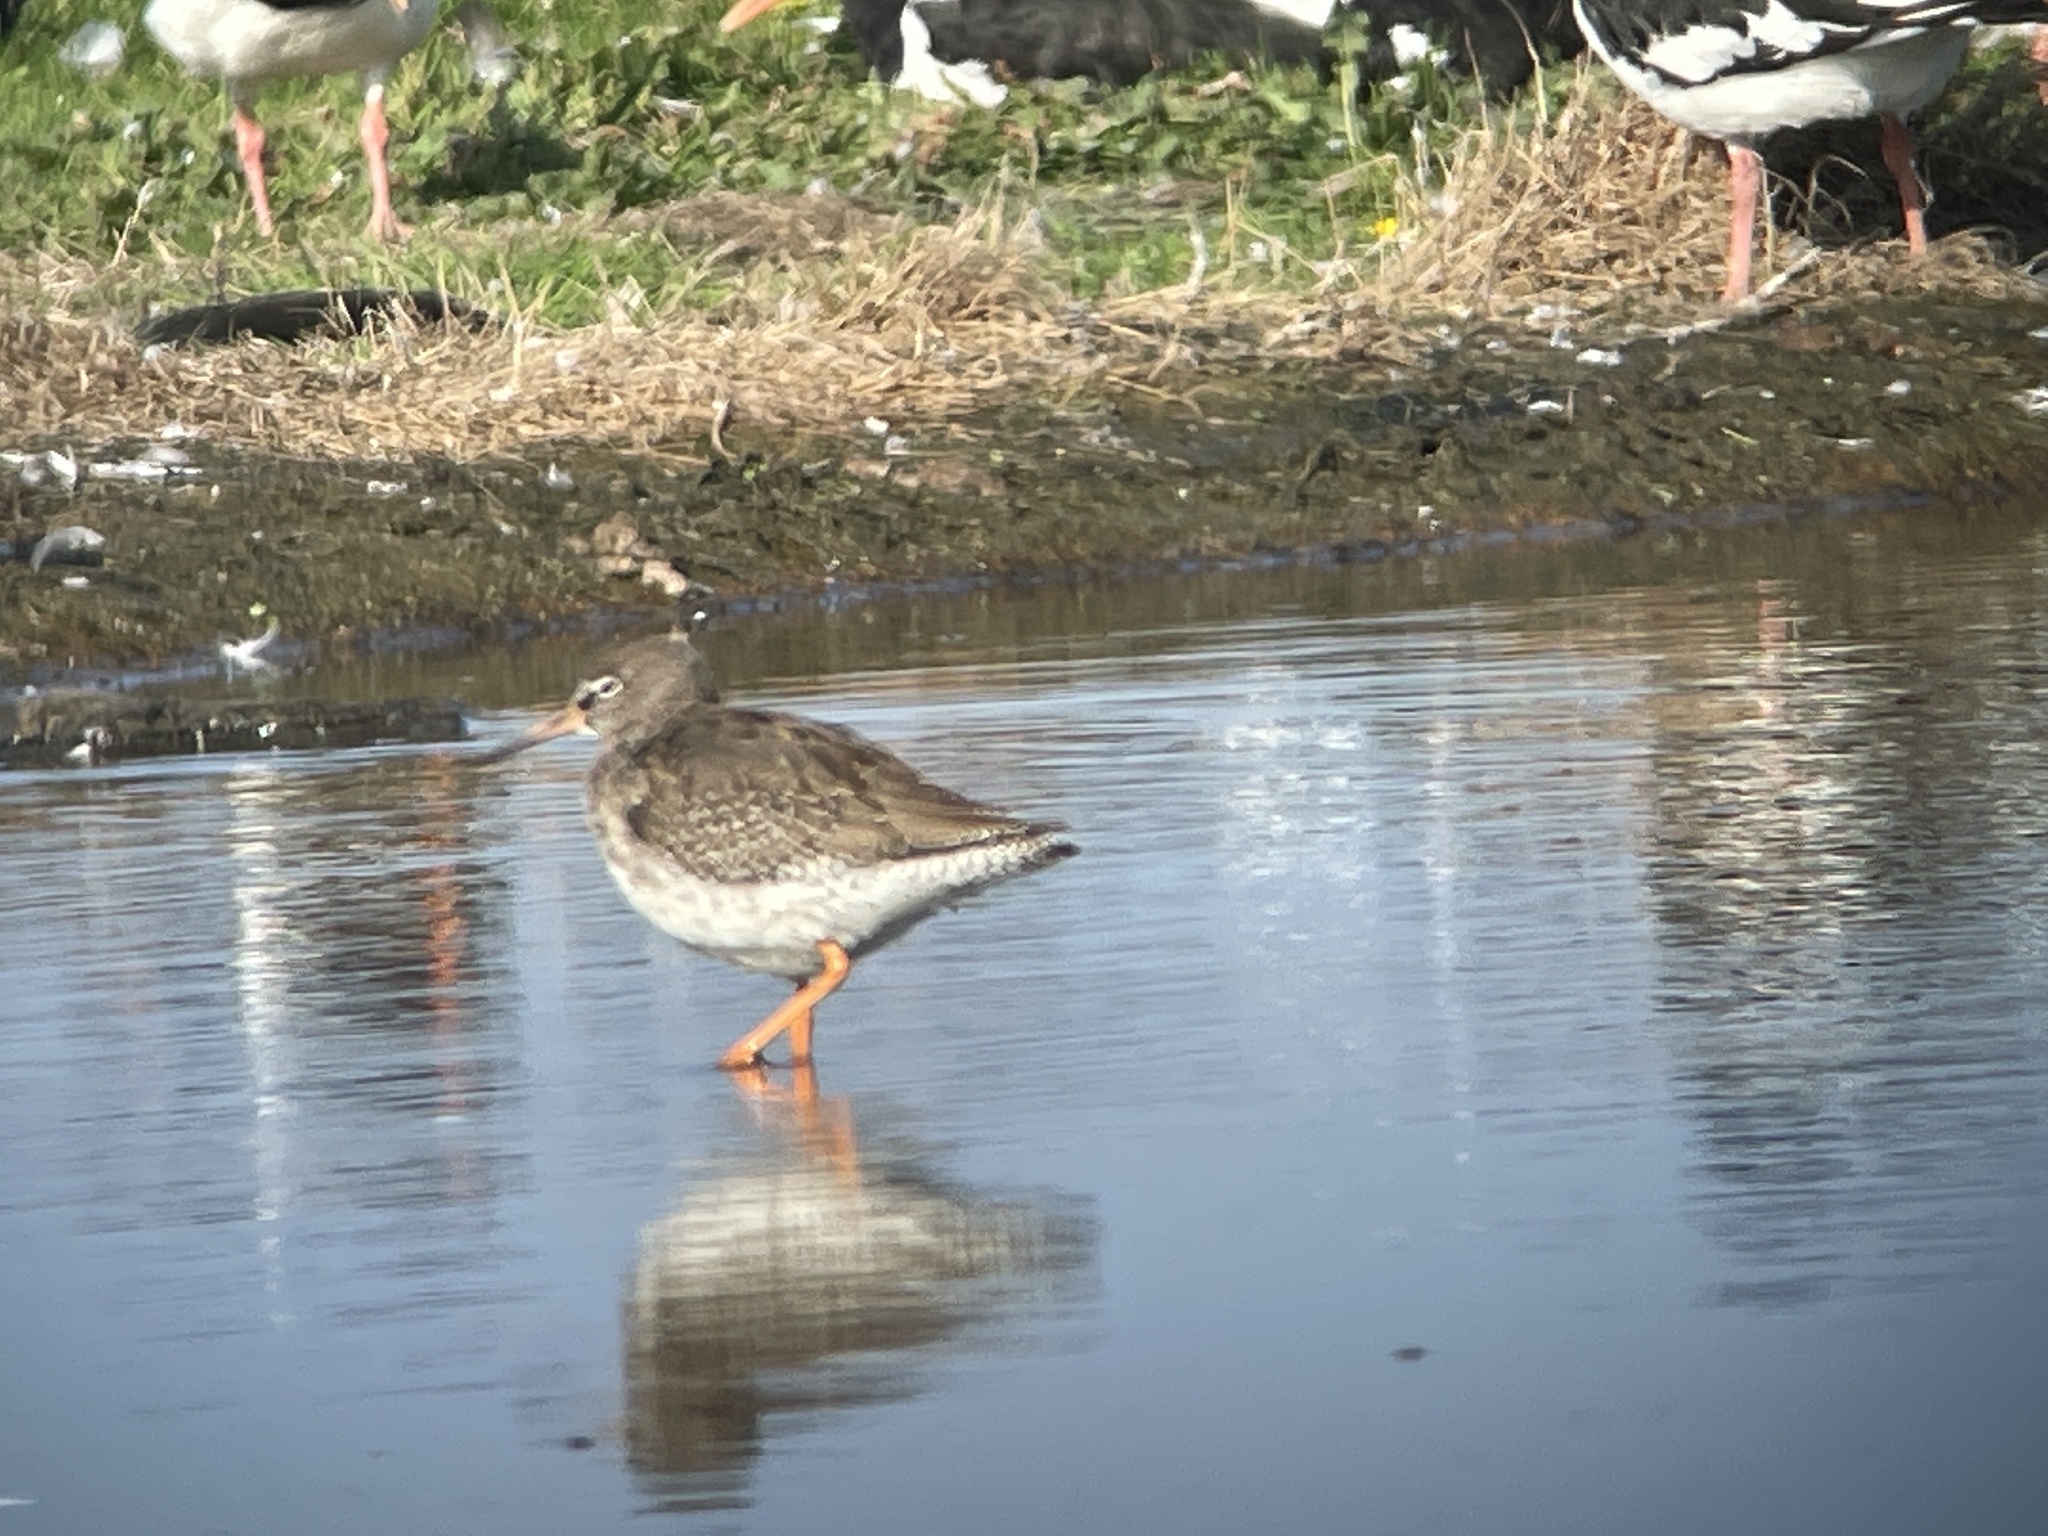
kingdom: Animalia
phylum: Chordata
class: Aves
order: Charadriiformes
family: Scolopacidae
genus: Tringa
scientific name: Tringa totanus
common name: Common redshank
